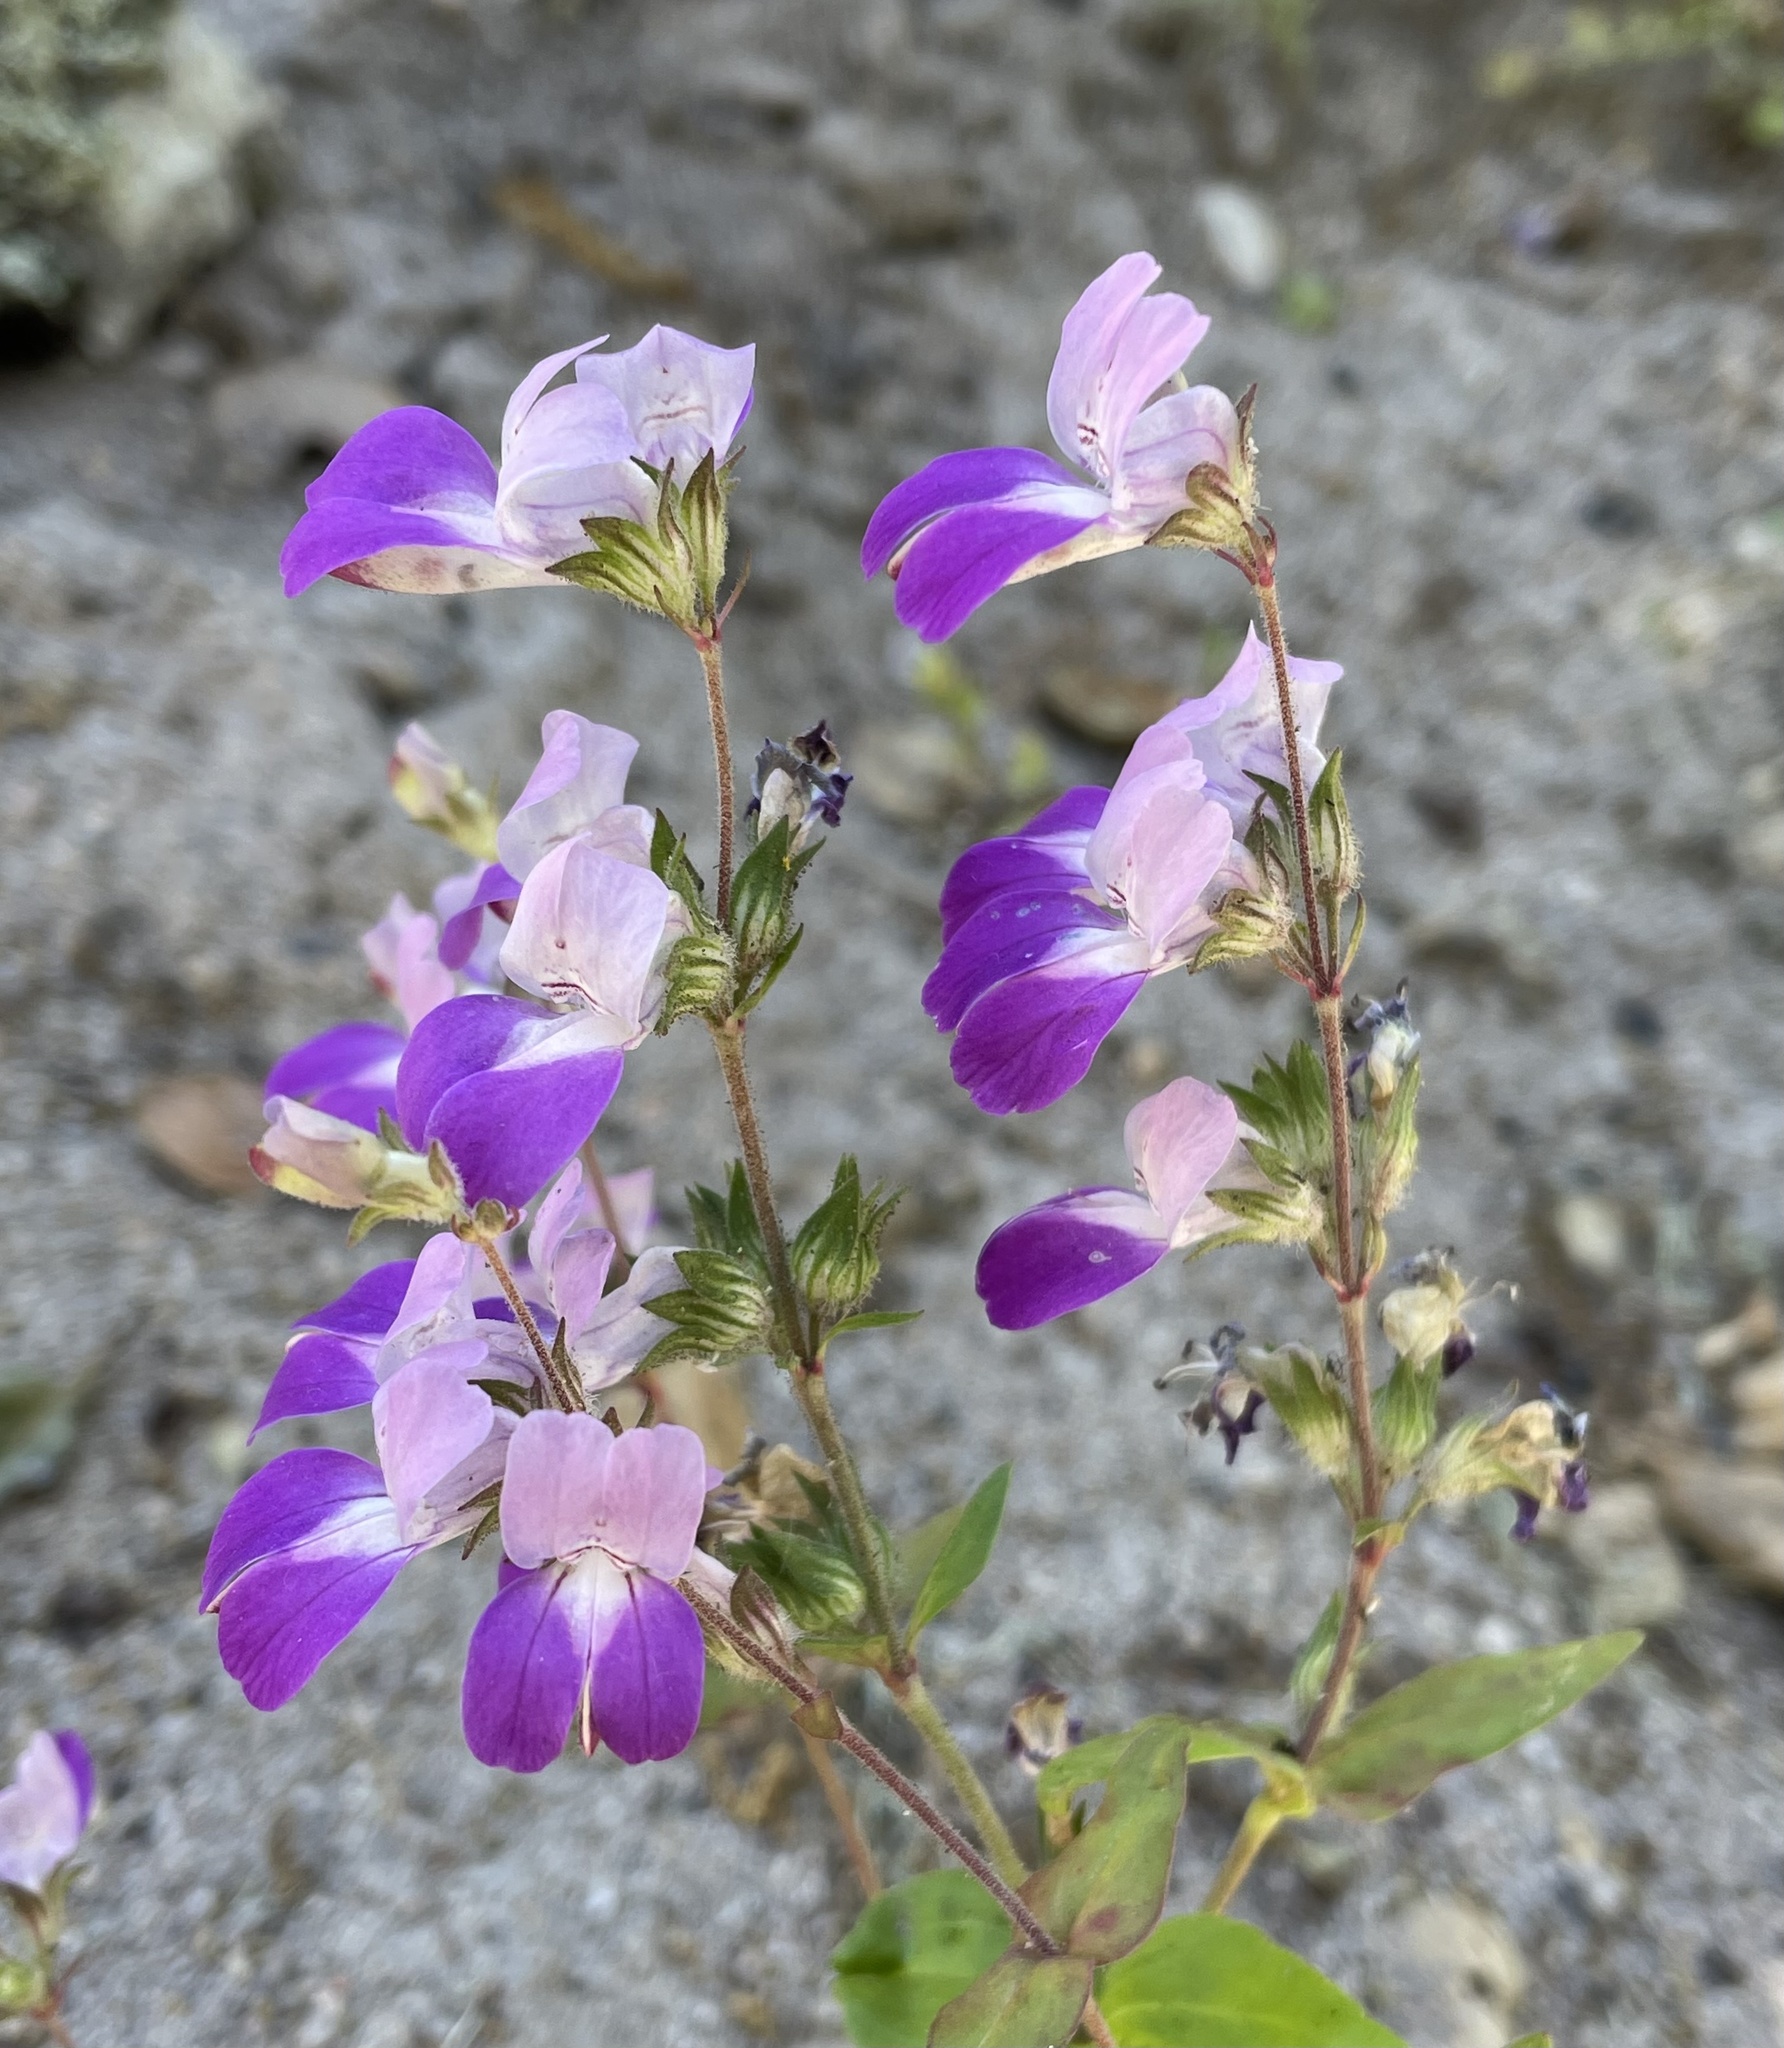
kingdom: Plantae
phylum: Tracheophyta
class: Magnoliopsida
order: Lamiales
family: Plantaginaceae
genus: Collinsia
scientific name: Collinsia heterophylla
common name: Chinese-houses
